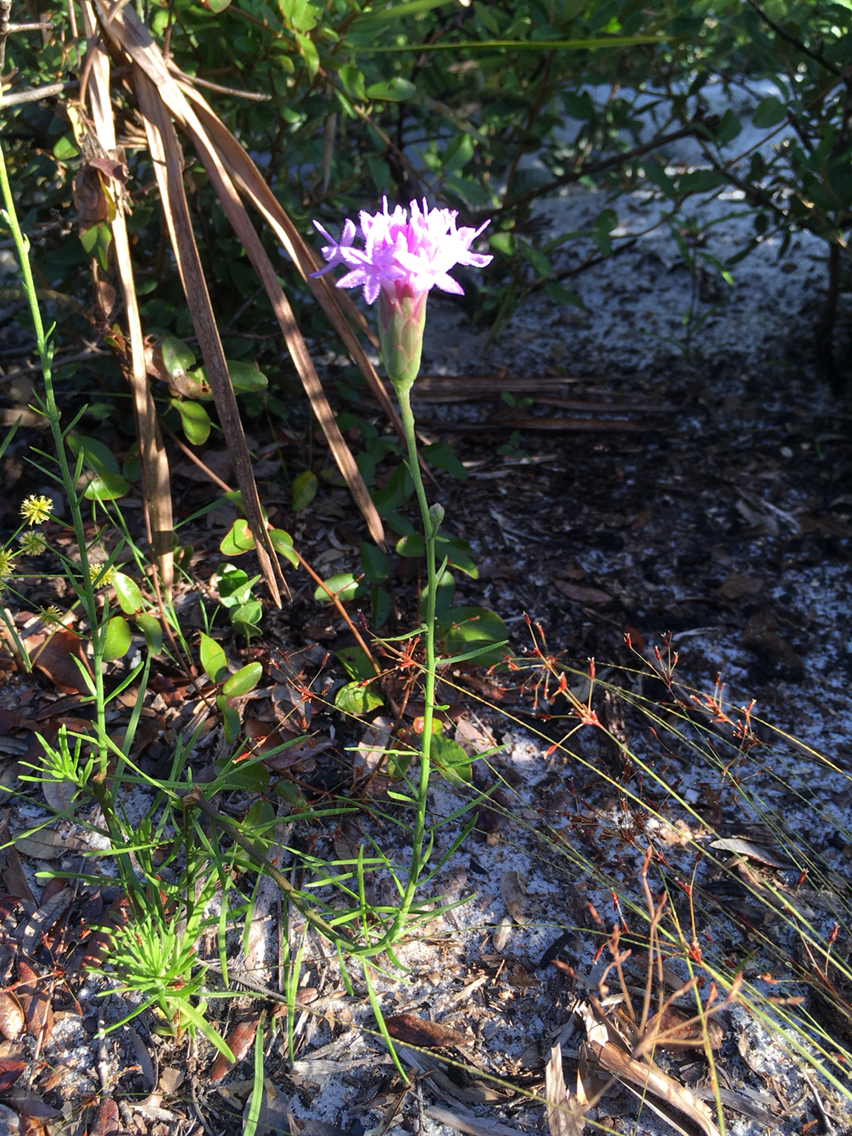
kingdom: Plantae
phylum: Tracheophyta
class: Magnoliopsida
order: Asterales
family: Asteraceae
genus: Liatris
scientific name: Liatris ohlingerae
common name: Scrub blazingstar
